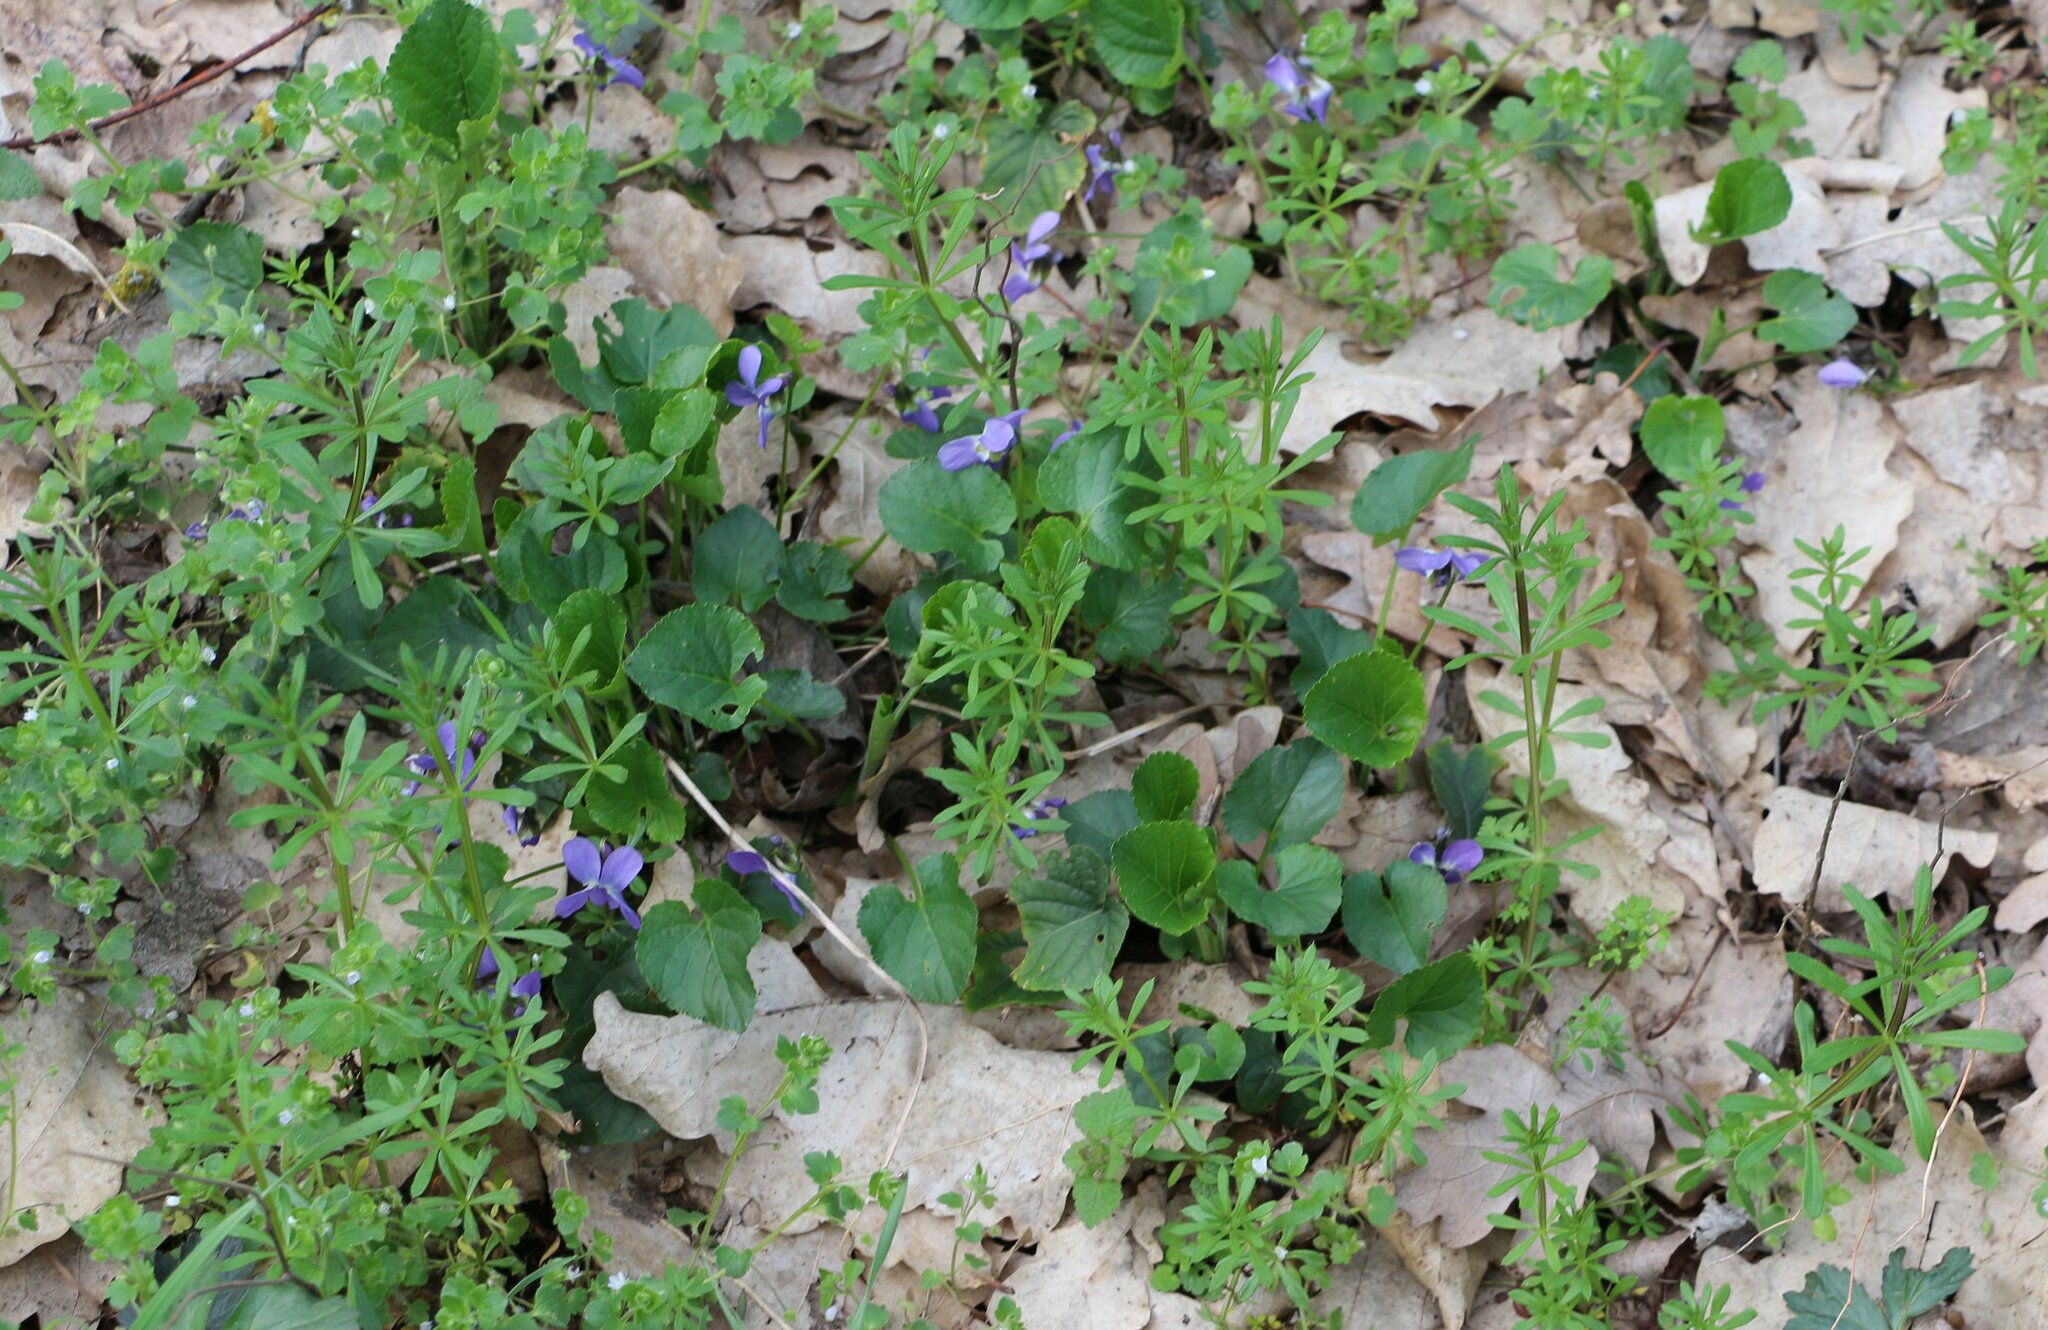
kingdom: Plantae
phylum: Tracheophyta
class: Magnoliopsida
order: Malpighiales
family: Violaceae
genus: Viola
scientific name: Viola suavis
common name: Russian violet
